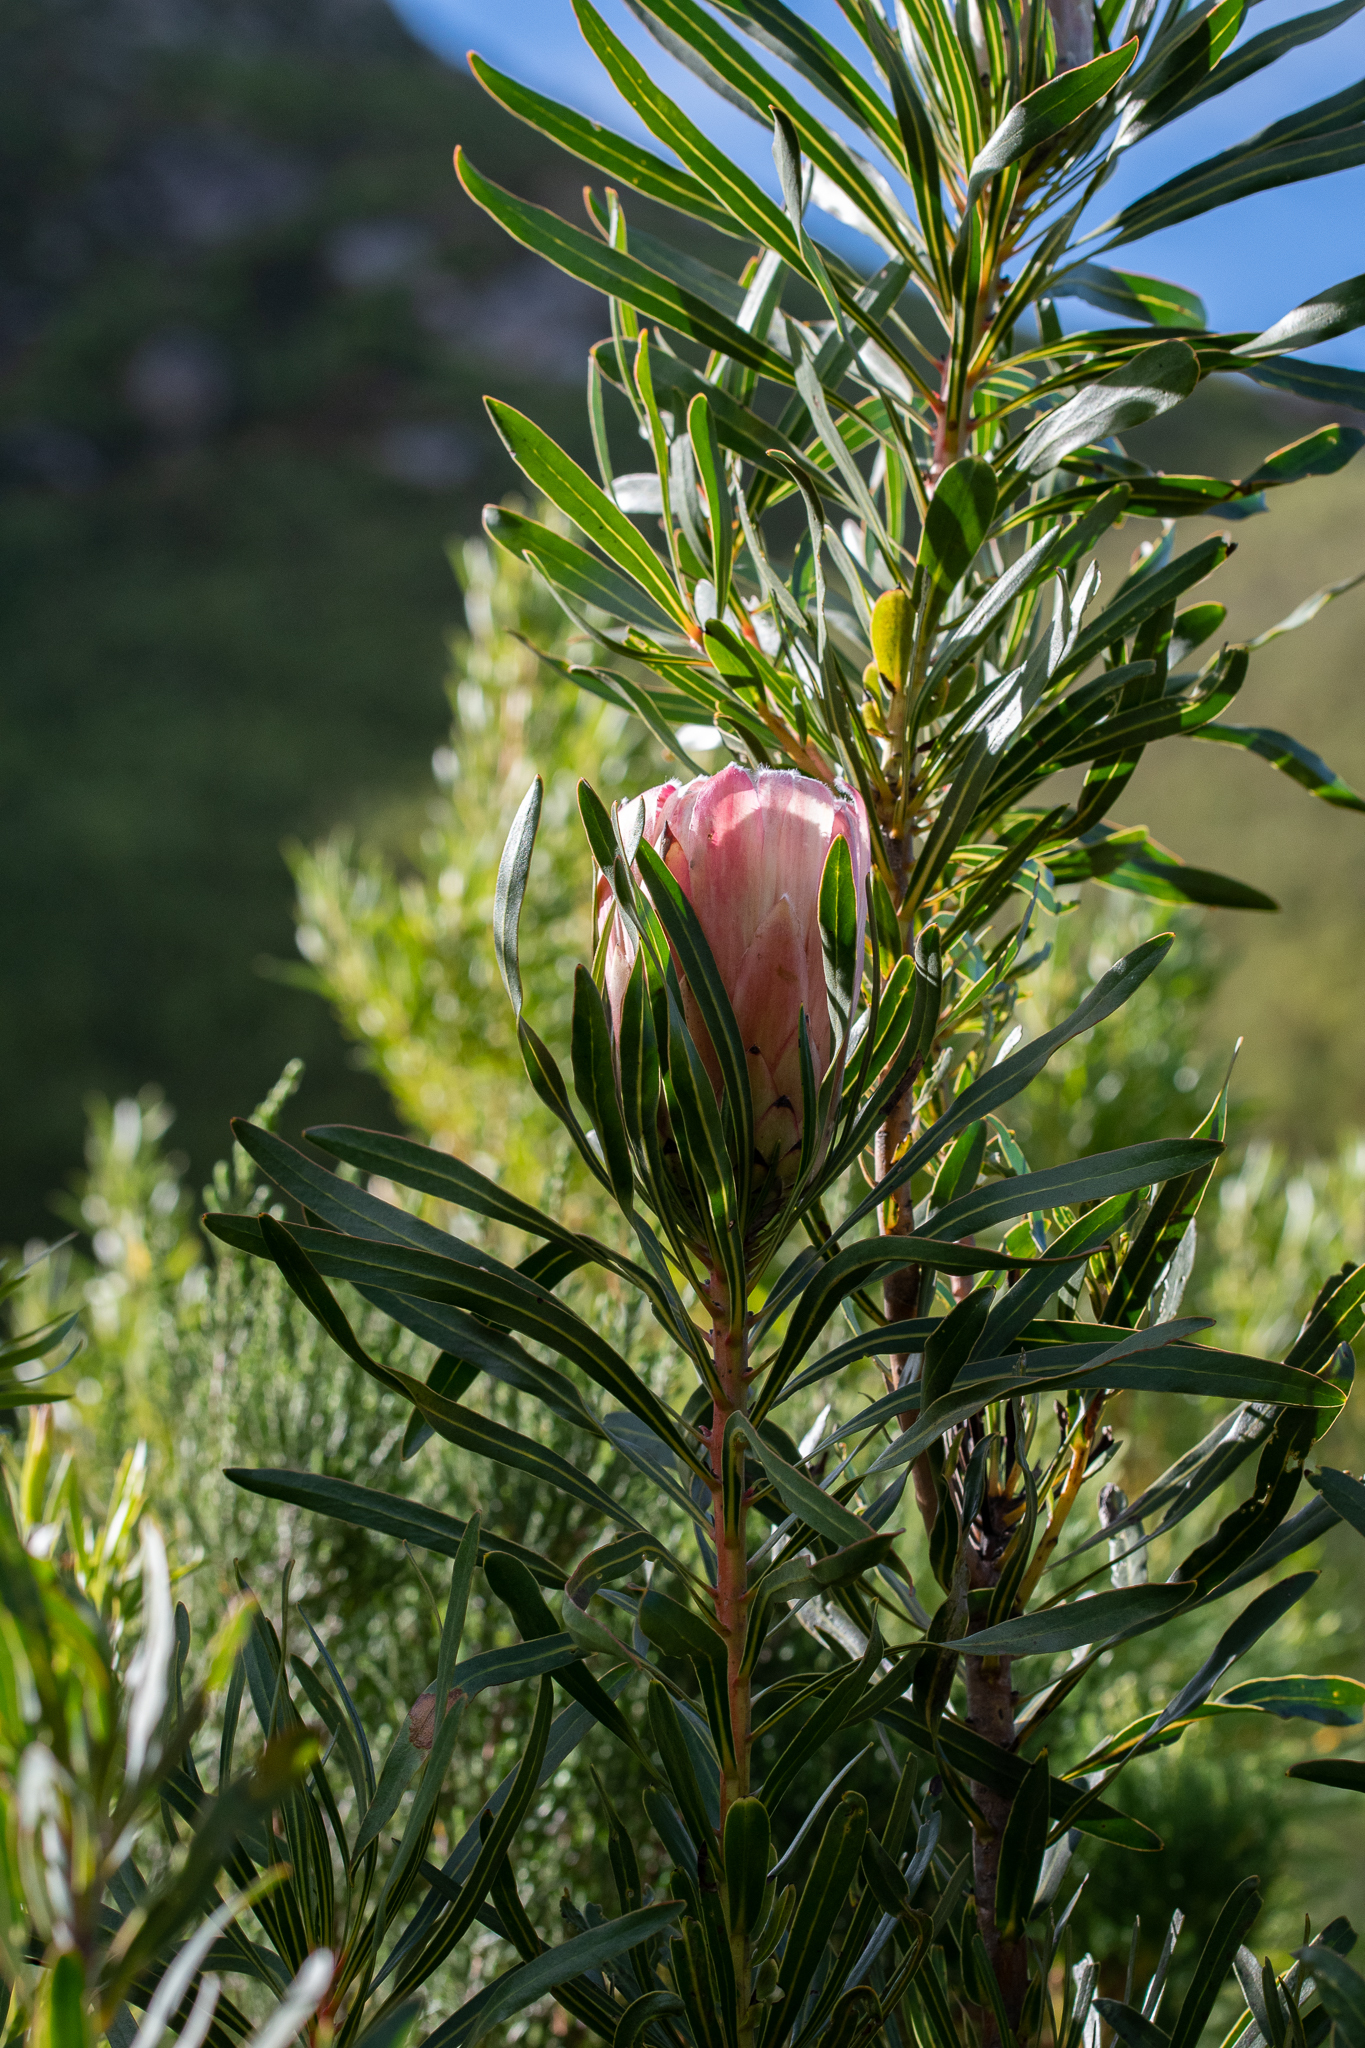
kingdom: Plantae
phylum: Tracheophyta
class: Magnoliopsida
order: Proteales
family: Proteaceae
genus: Protea
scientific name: Protea
